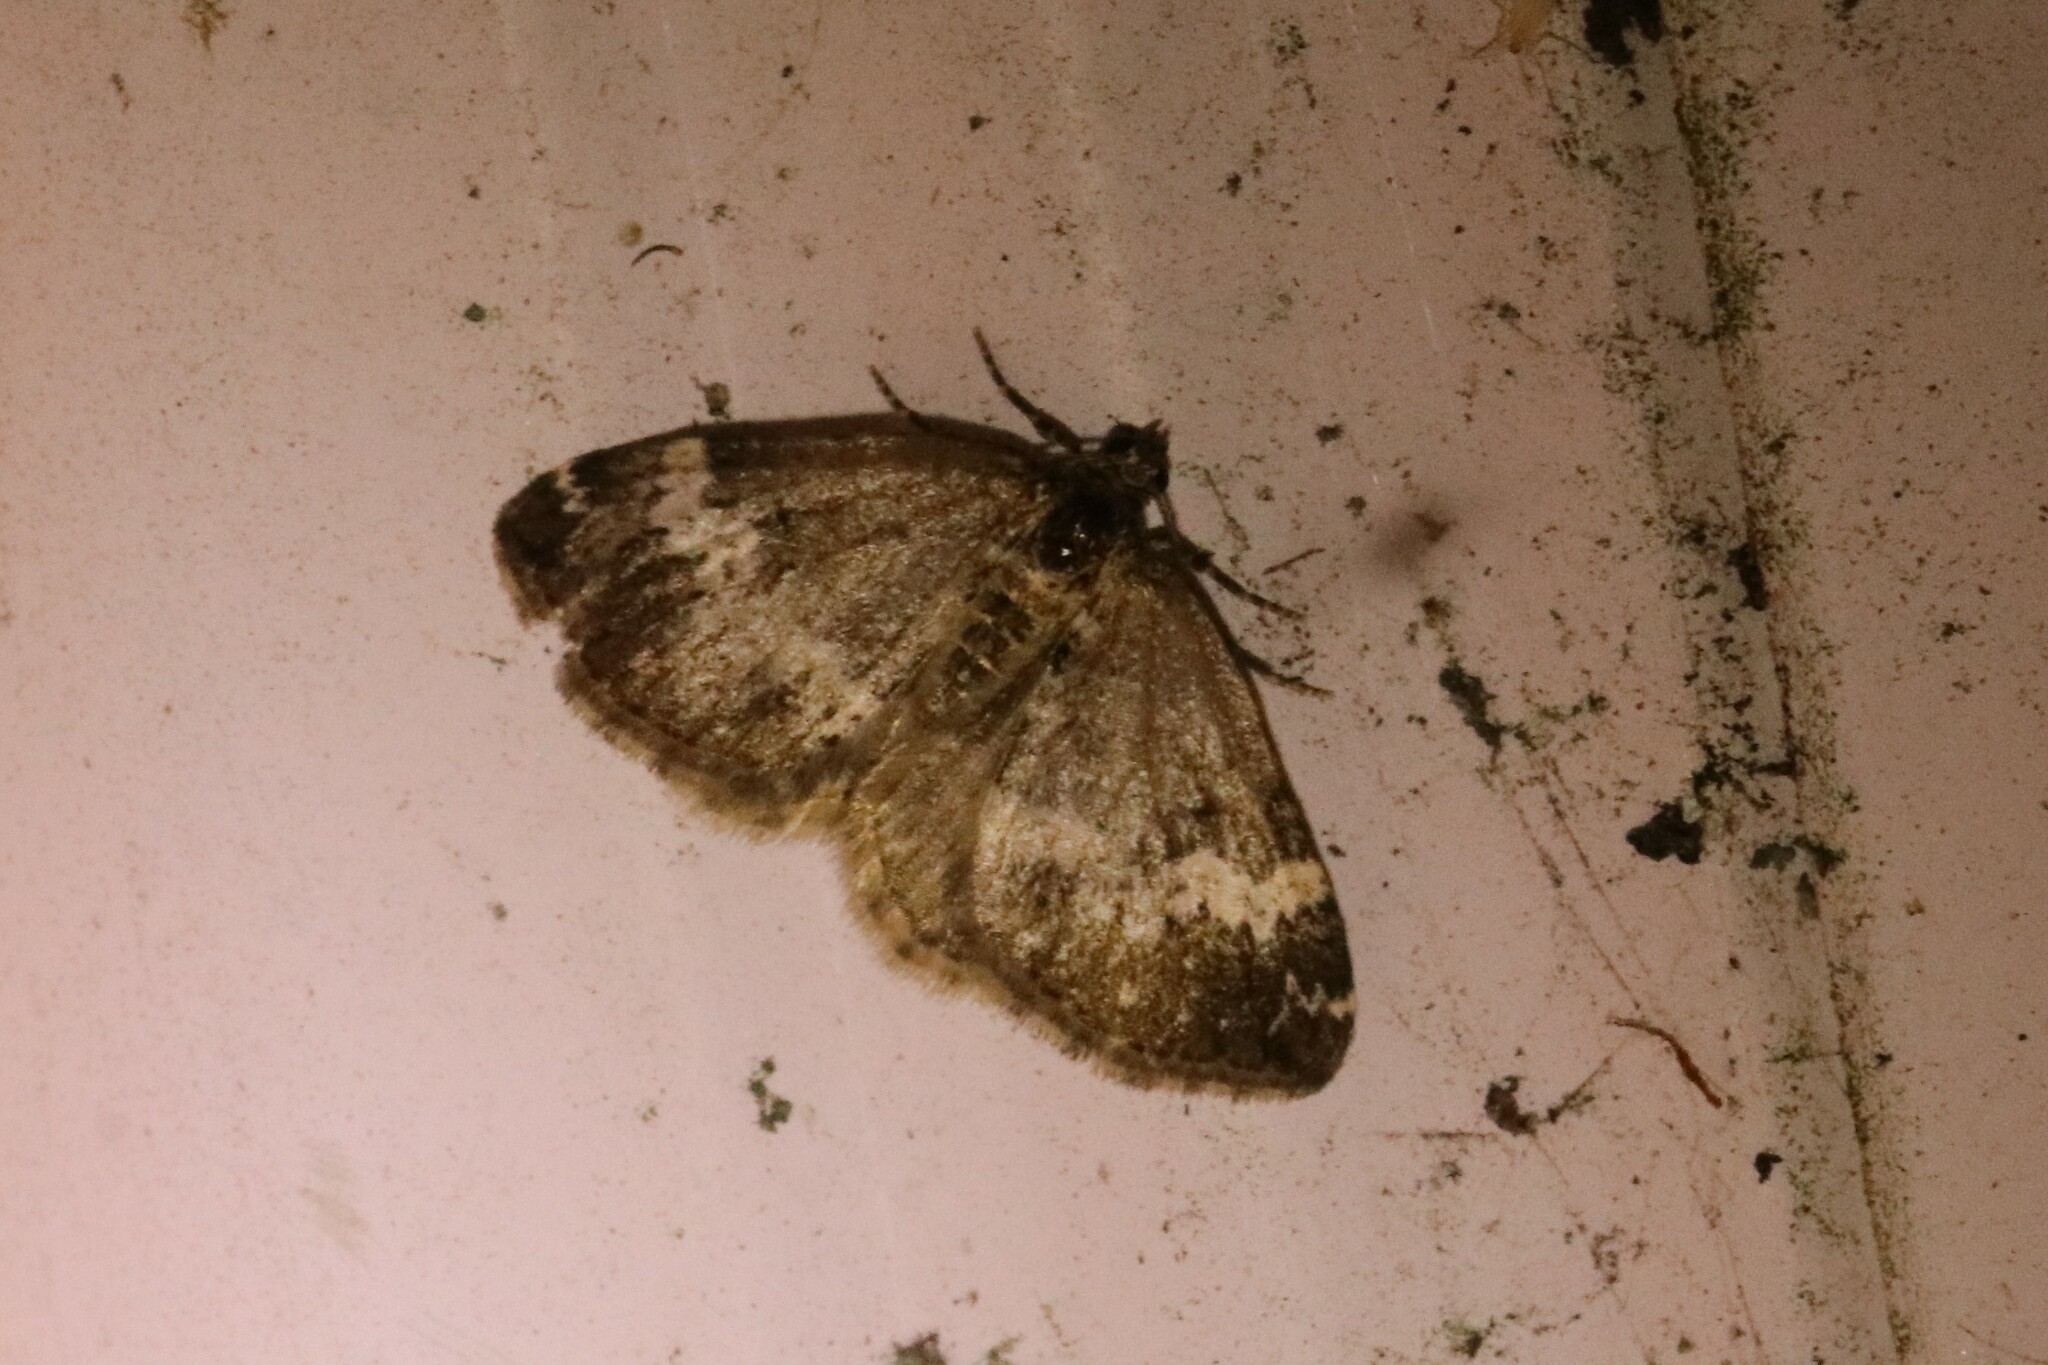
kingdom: Animalia
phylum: Arthropoda
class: Insecta
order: Lepidoptera
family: Geometridae
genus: Perizoma
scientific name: Perizoma alchemillata
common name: Small rivulet
